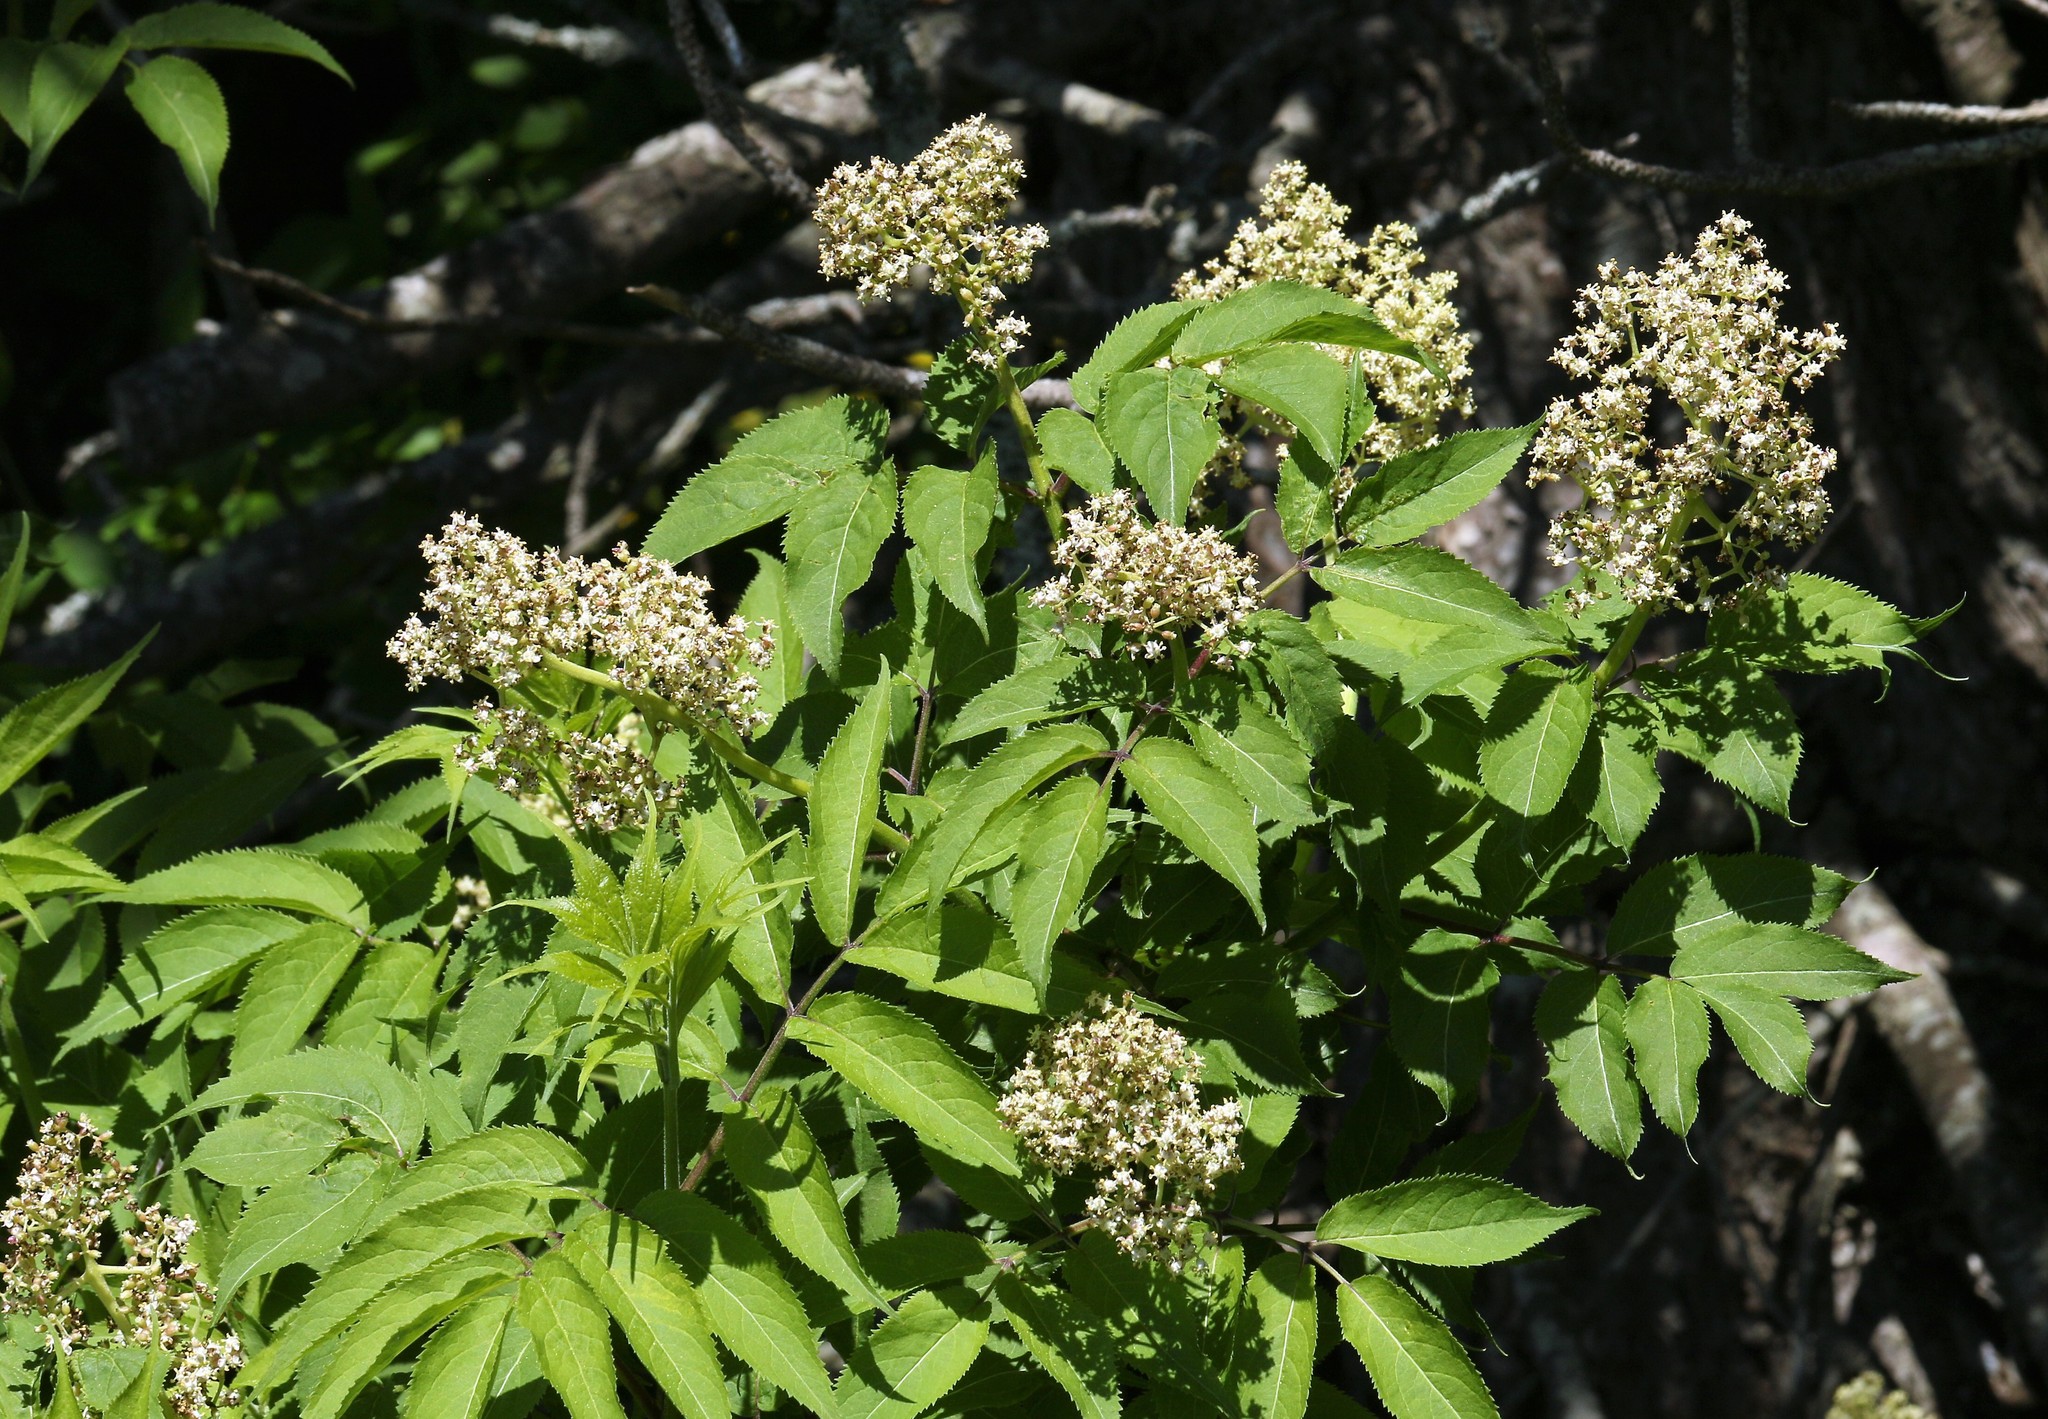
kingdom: Plantae
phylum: Tracheophyta
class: Magnoliopsida
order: Dipsacales
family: Viburnaceae
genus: Sambucus
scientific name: Sambucus racemosa
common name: Red-berried elder
